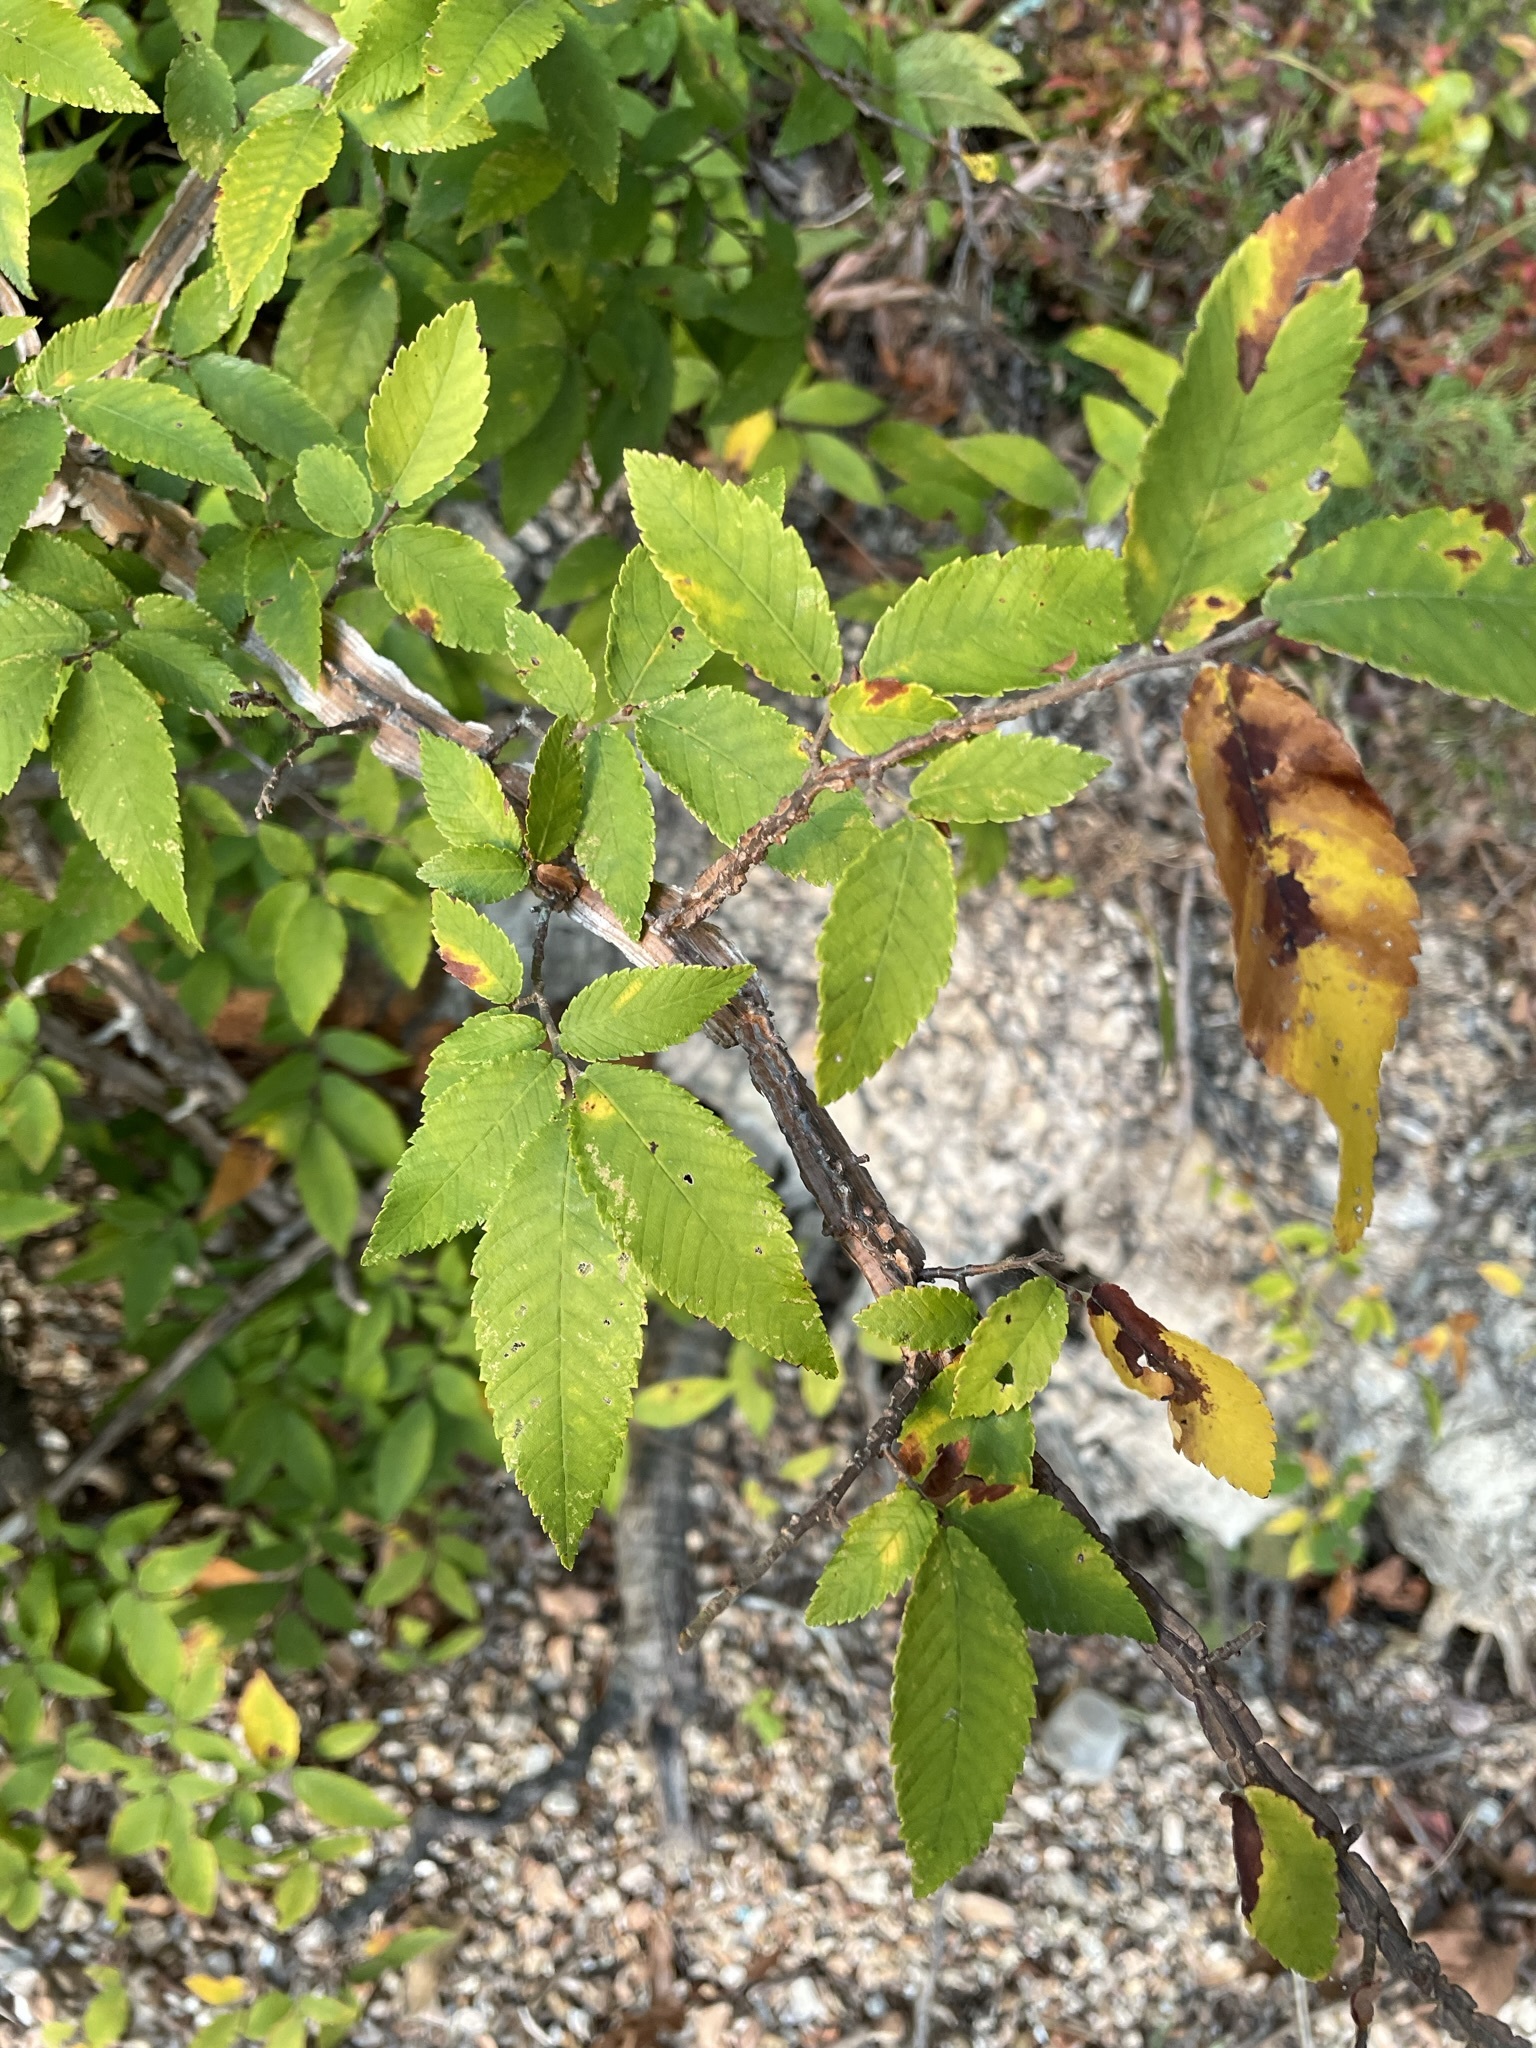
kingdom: Plantae
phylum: Tracheophyta
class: Magnoliopsida
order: Rosales
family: Ulmaceae
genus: Ulmus
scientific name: Ulmus alata
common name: Winged elm
